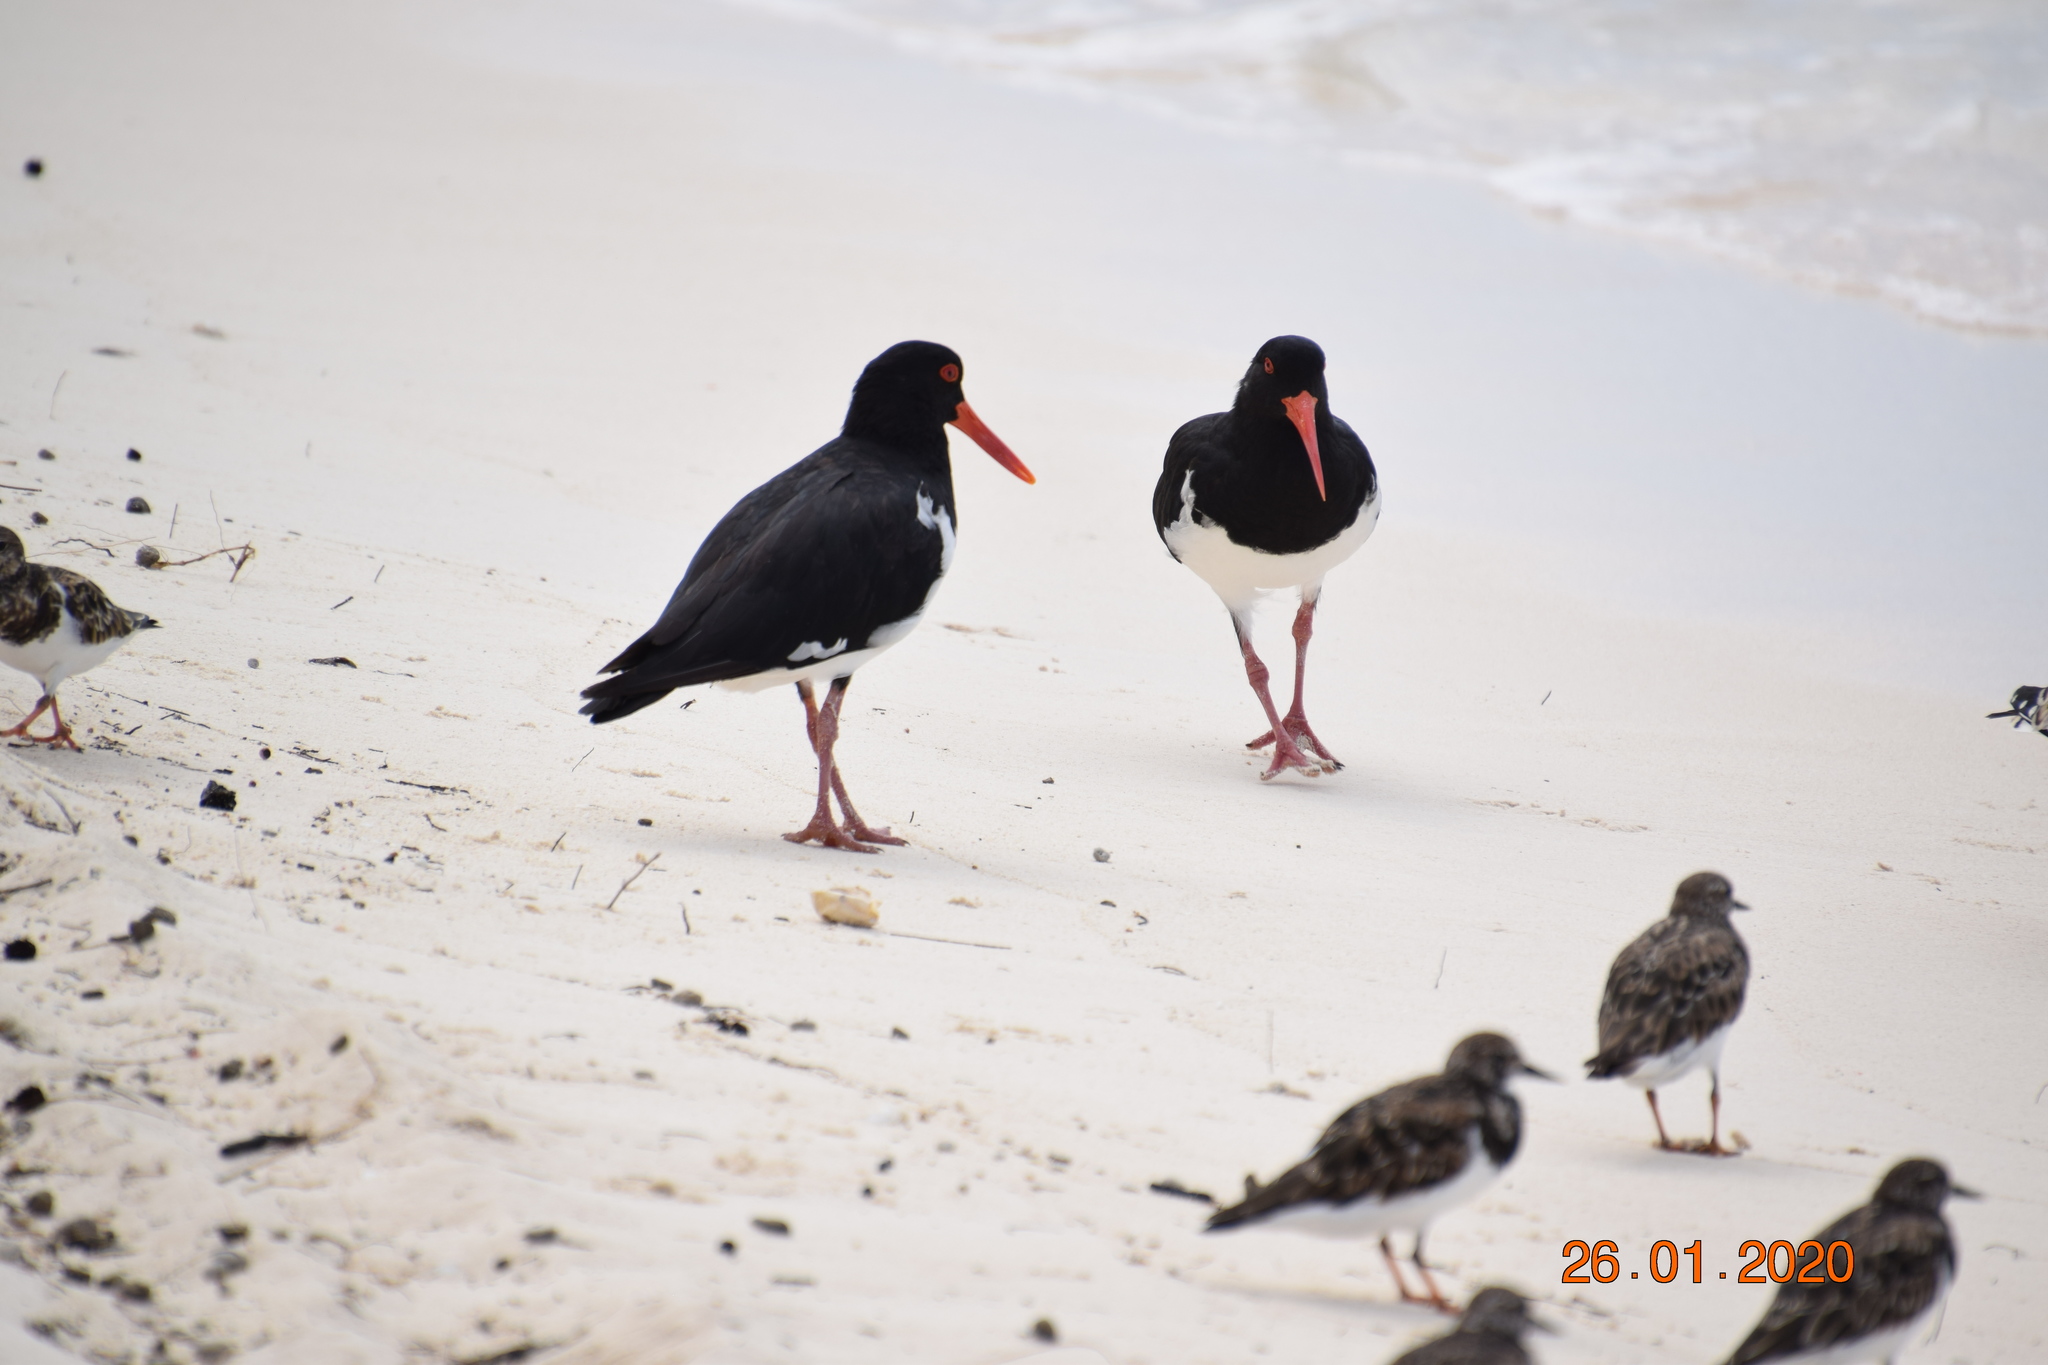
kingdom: Animalia
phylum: Chordata
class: Aves
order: Charadriiformes
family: Haematopodidae
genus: Haematopus
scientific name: Haematopus longirostris
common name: Pied oystercatcher
